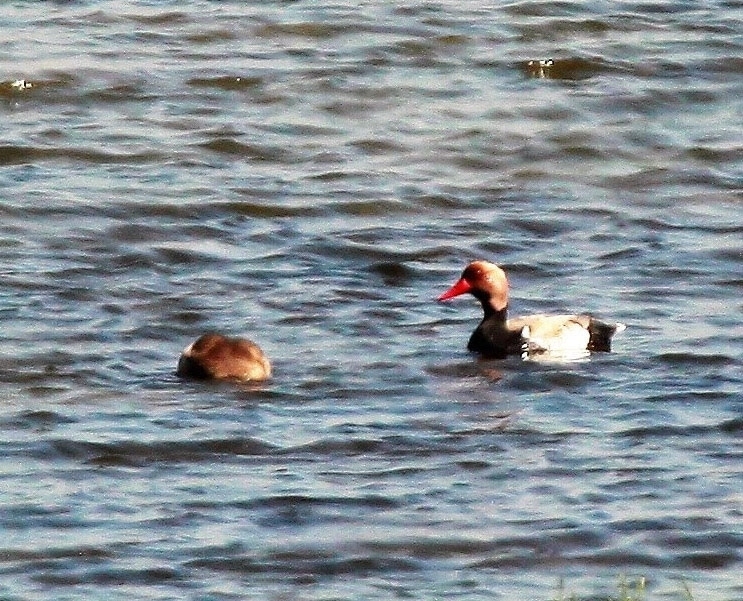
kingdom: Animalia
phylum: Chordata
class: Aves
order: Anseriformes
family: Anatidae
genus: Netta
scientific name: Netta rufina
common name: Red-crested pochard
